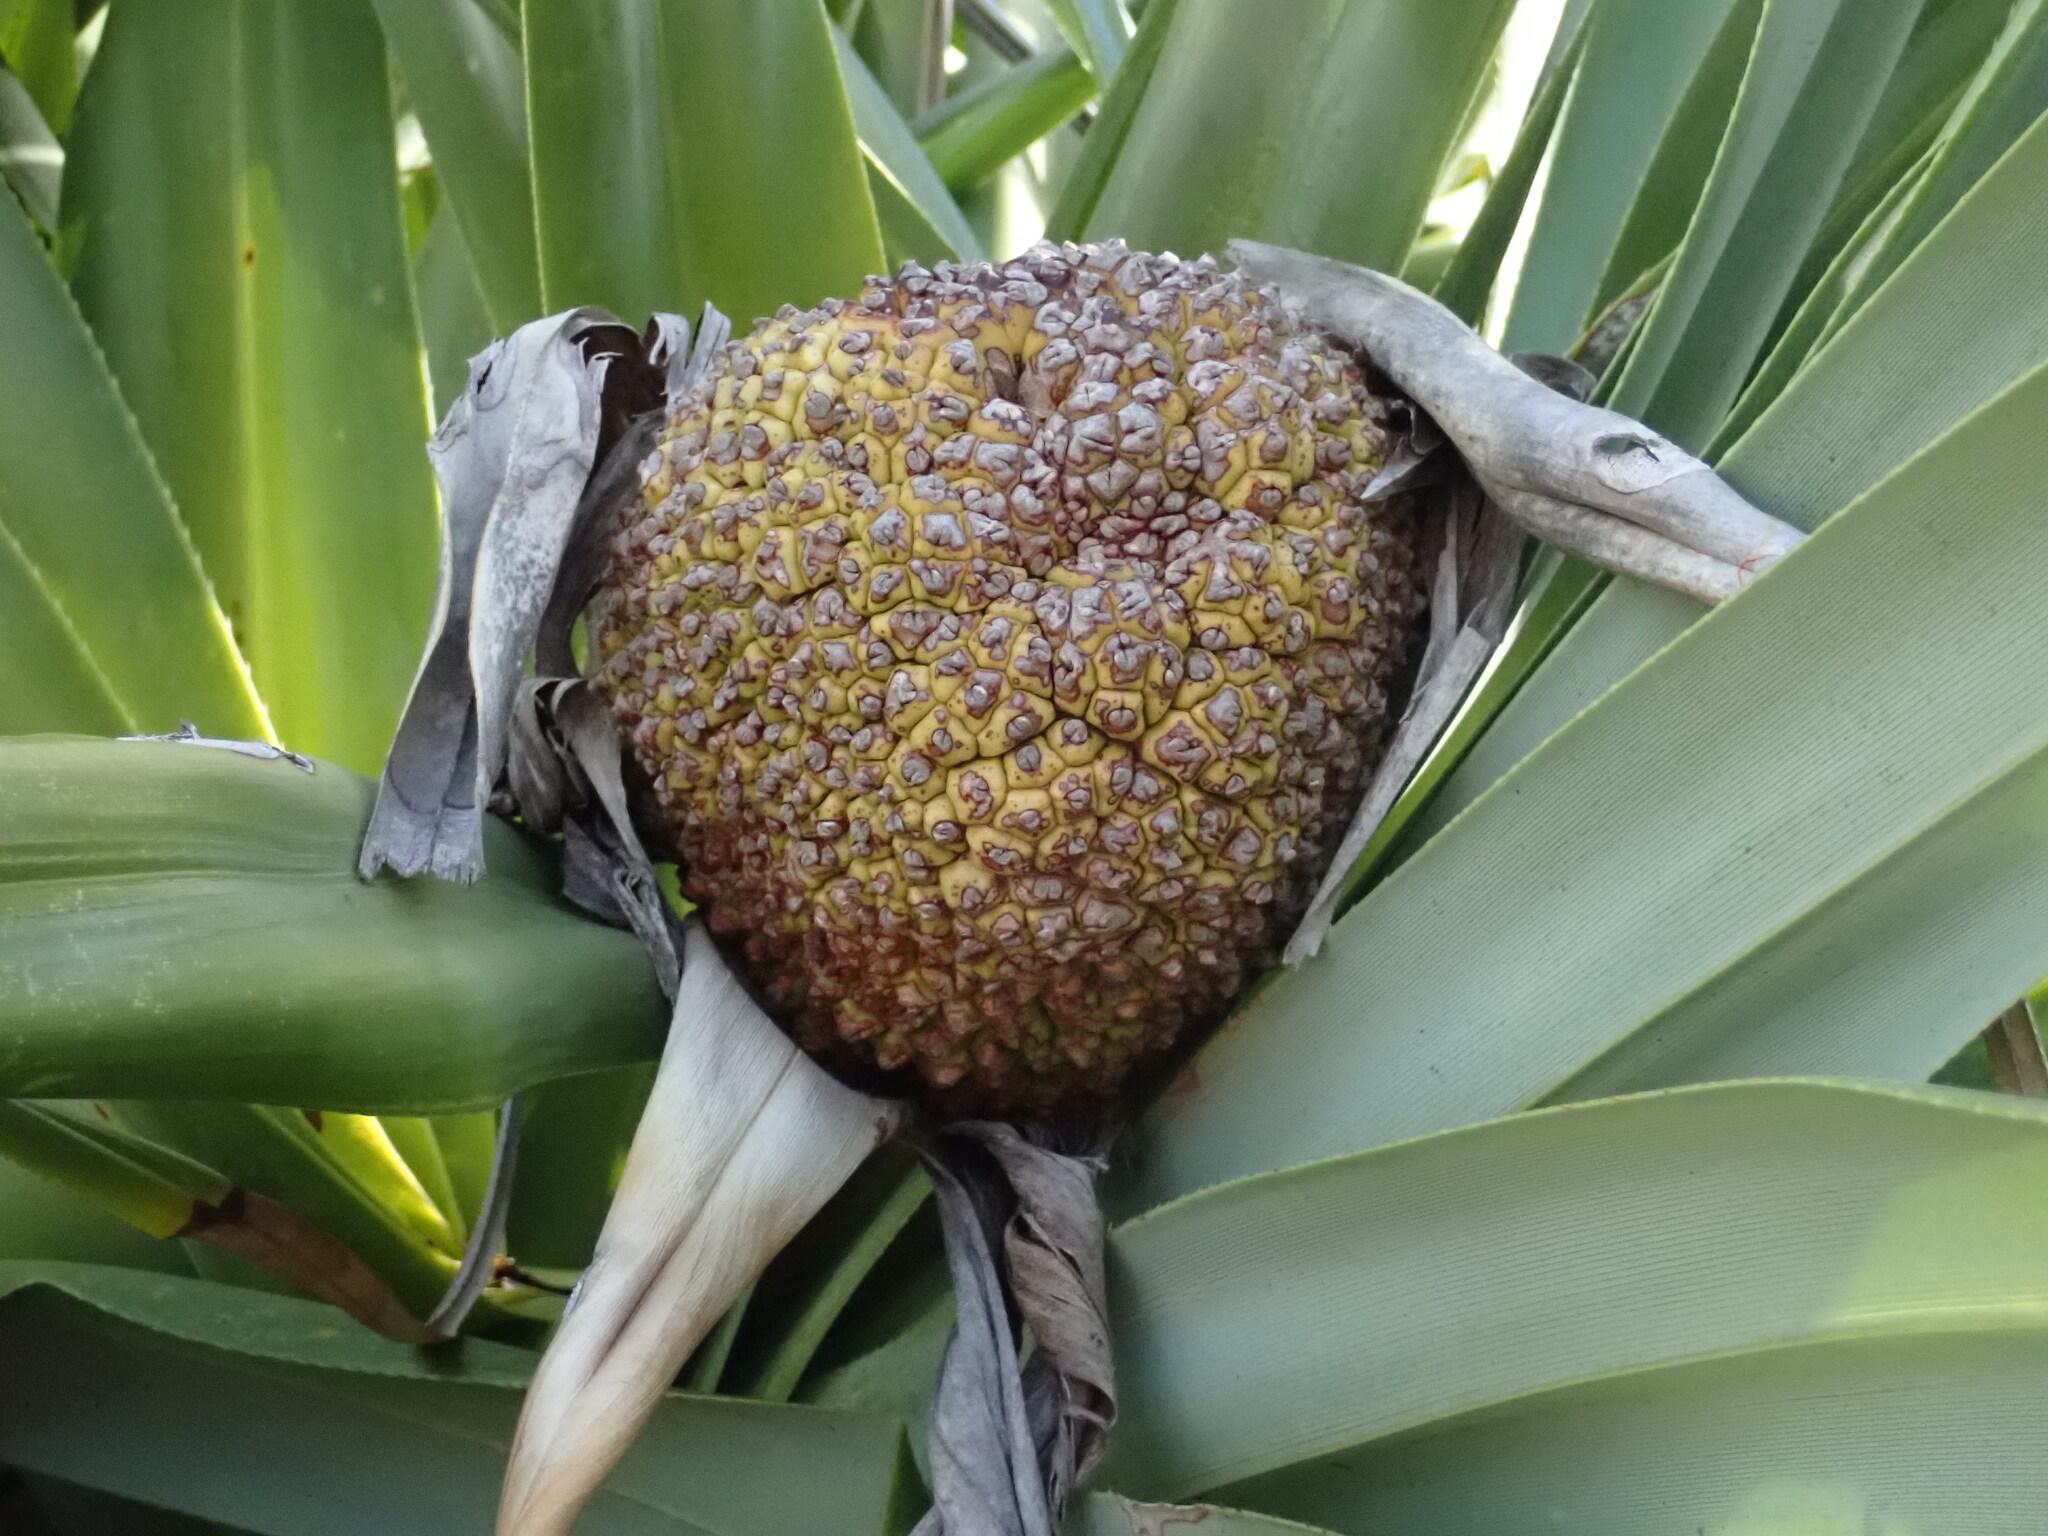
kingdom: Plantae
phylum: Tracheophyta
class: Liliopsida
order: Pandanales
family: Pandanaceae
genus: Pandanus
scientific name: Pandanus tectorius
